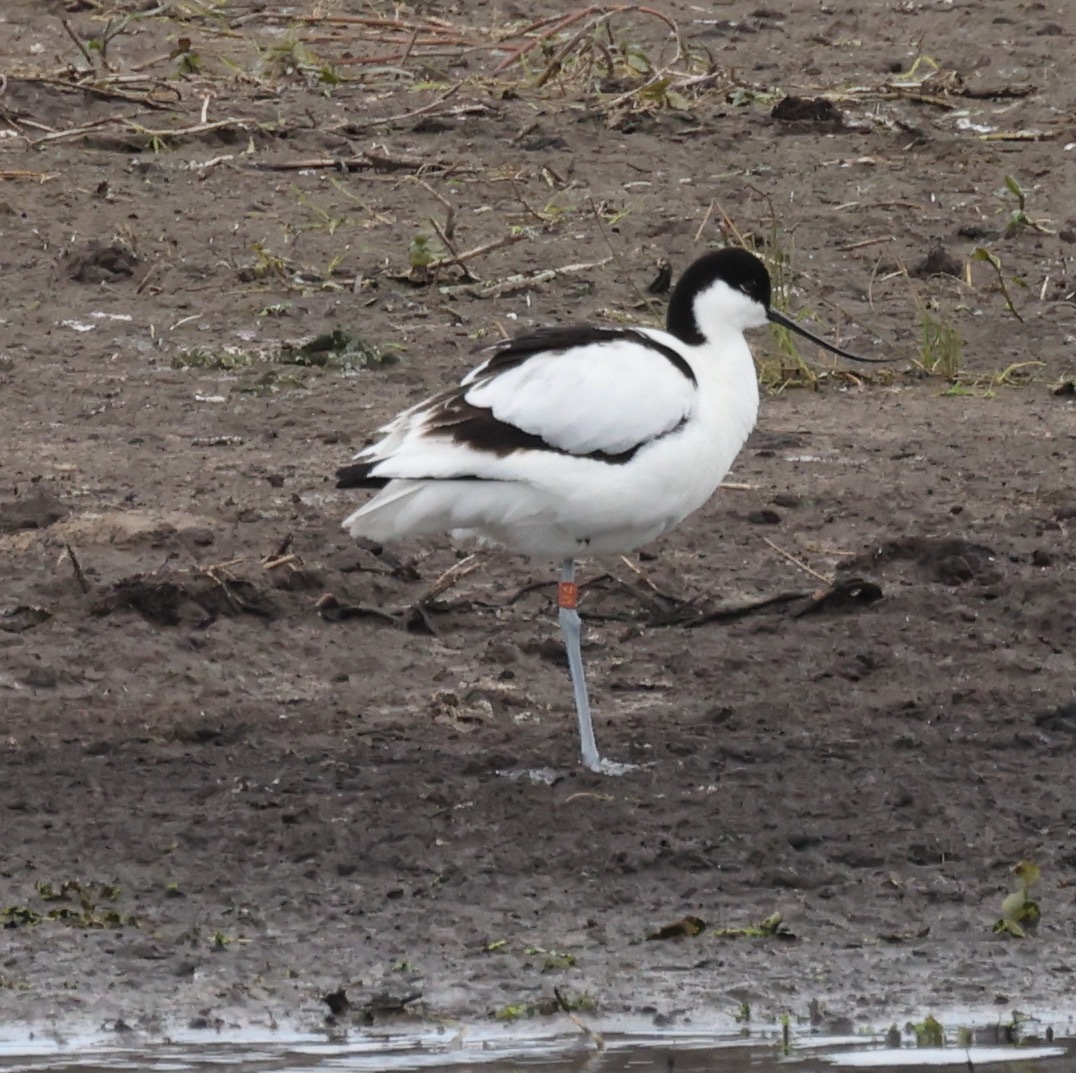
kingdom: Animalia
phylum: Chordata
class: Aves
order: Charadriiformes
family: Recurvirostridae
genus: Recurvirostra
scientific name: Recurvirostra avosetta
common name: Pied avocet
